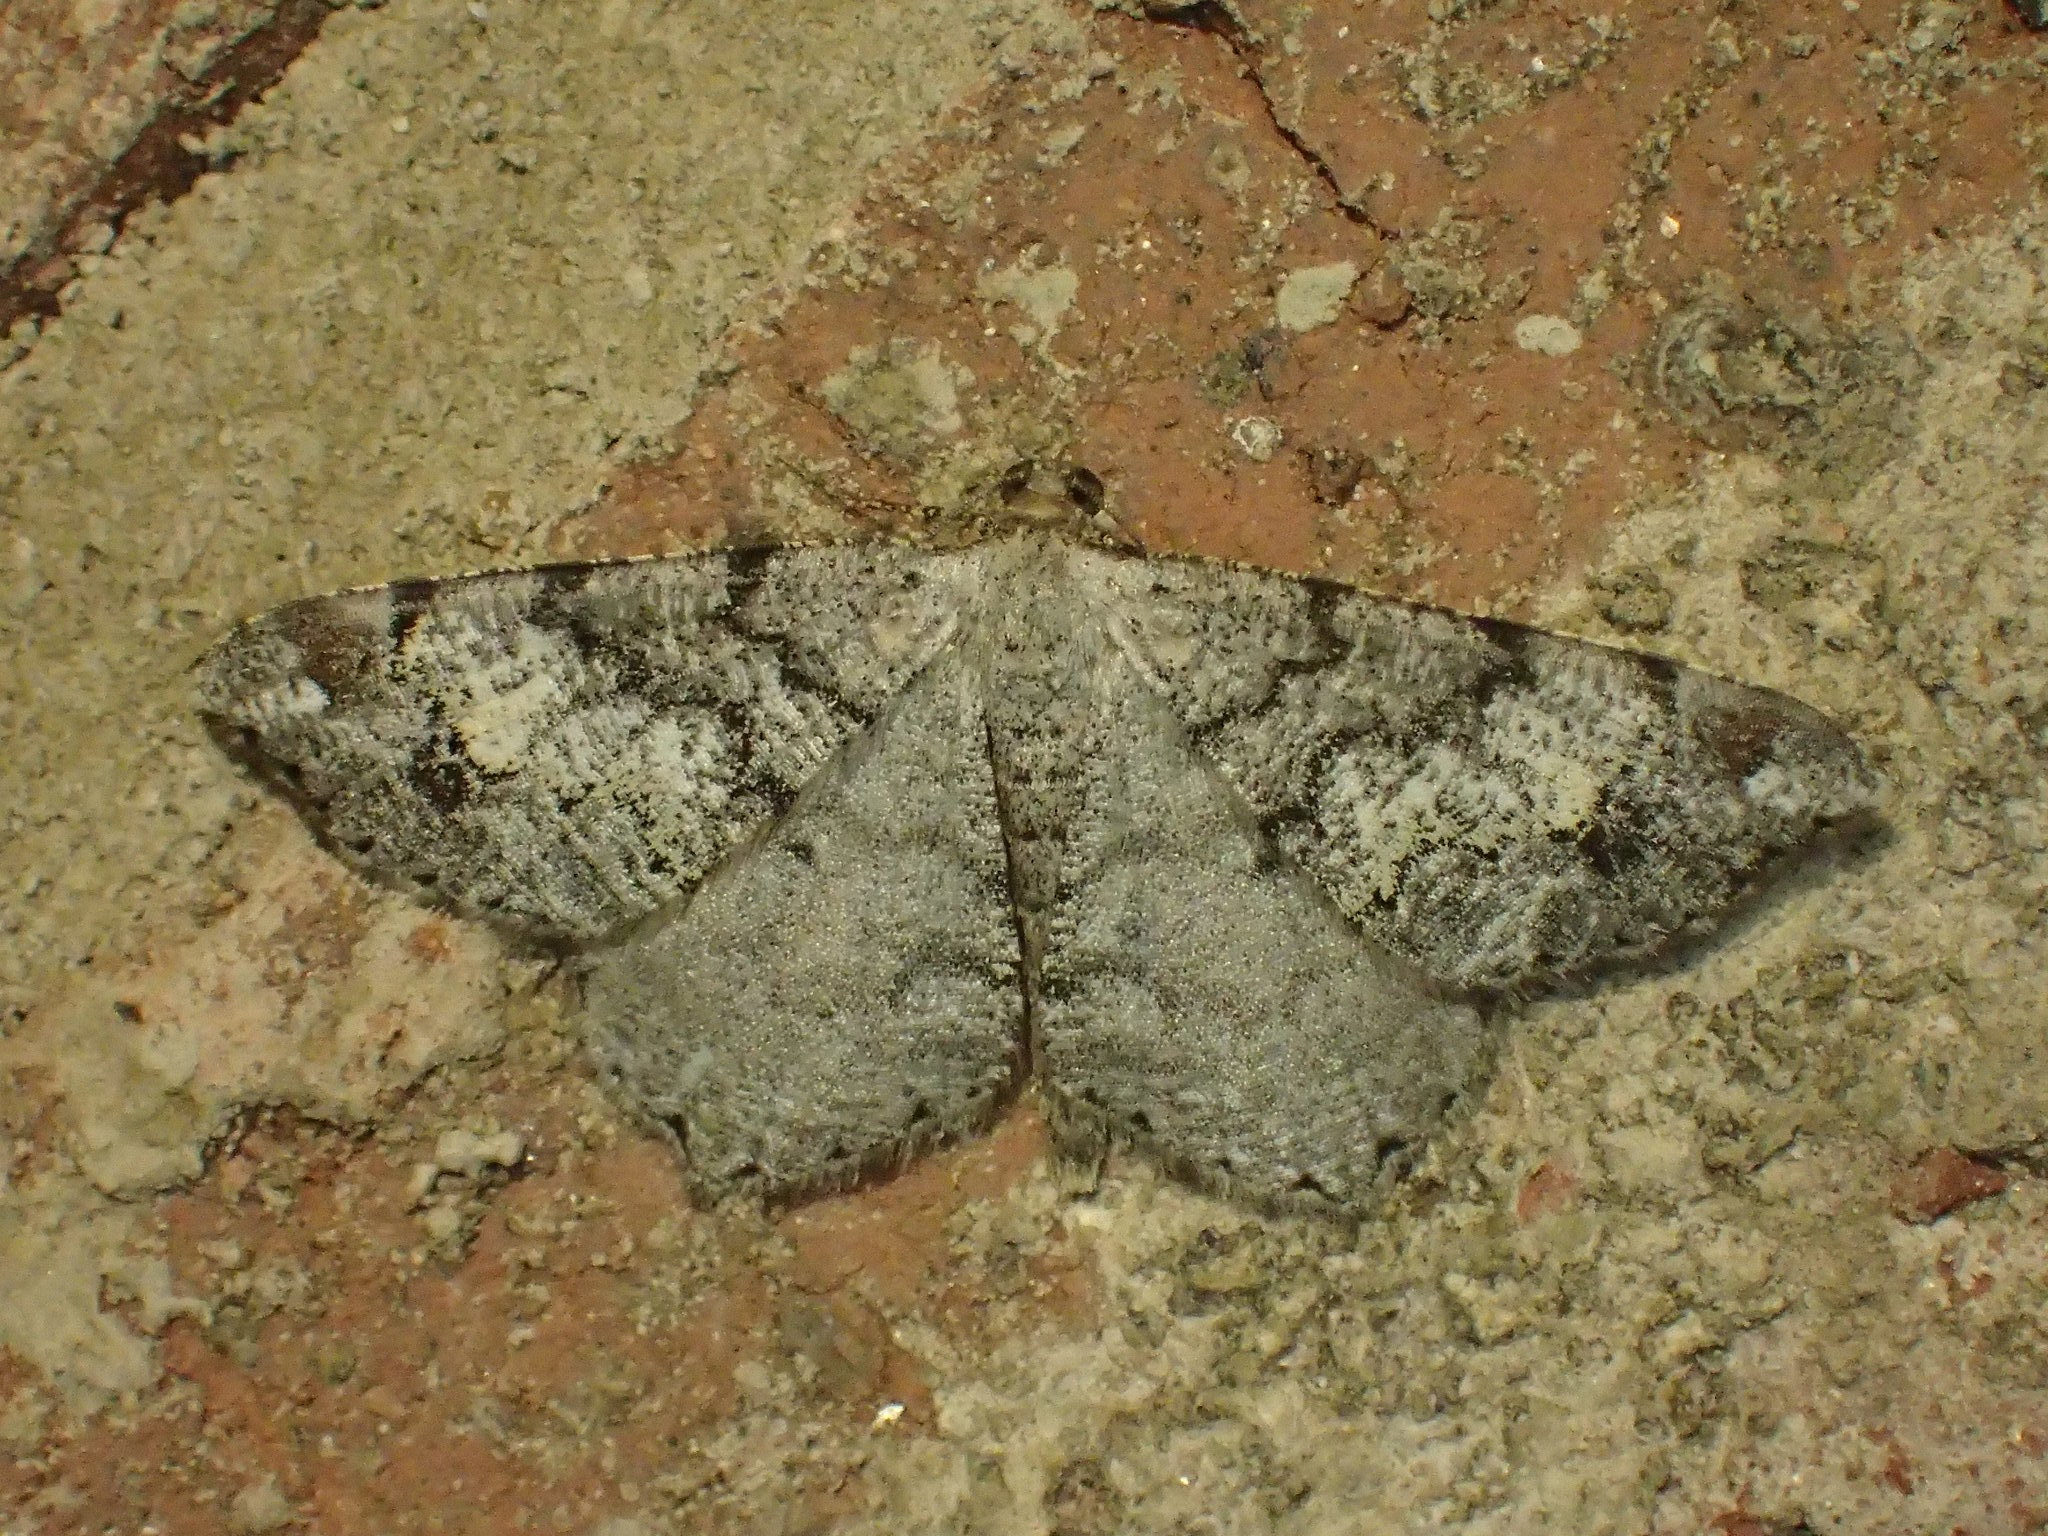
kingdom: Animalia
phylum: Arthropoda
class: Insecta
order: Lepidoptera
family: Geometridae
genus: Macaria
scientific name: Macaria granitata
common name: Granite moth
